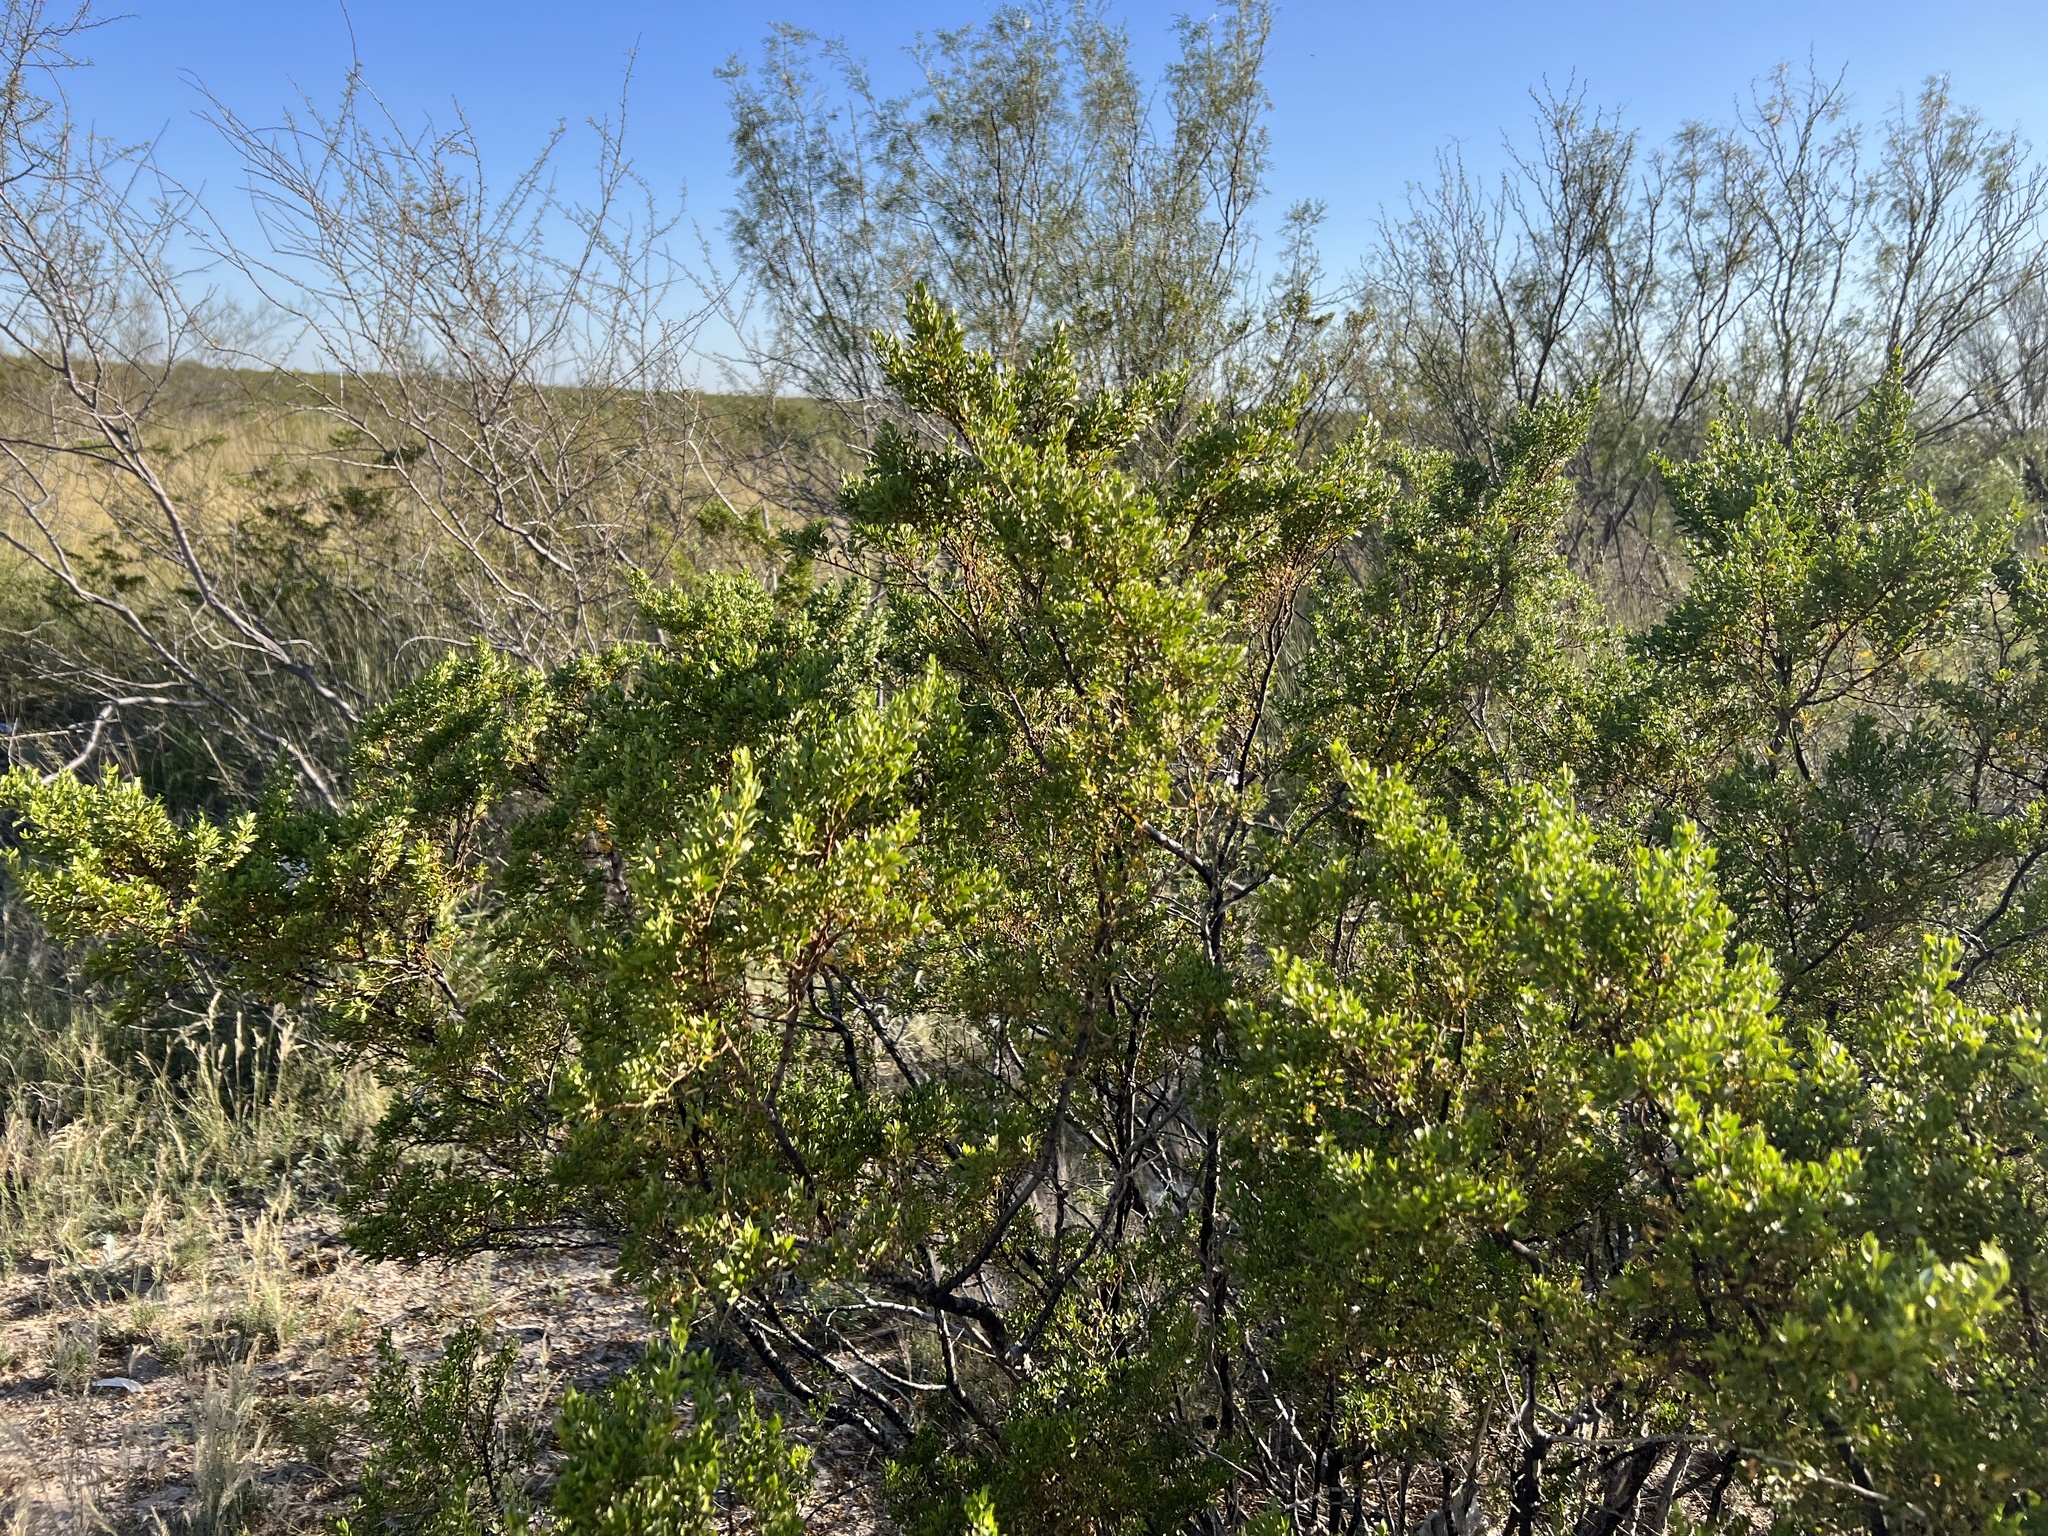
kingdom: Plantae
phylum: Tracheophyta
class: Magnoliopsida
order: Zygophyllales
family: Zygophyllaceae
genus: Larrea
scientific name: Larrea tridentata
